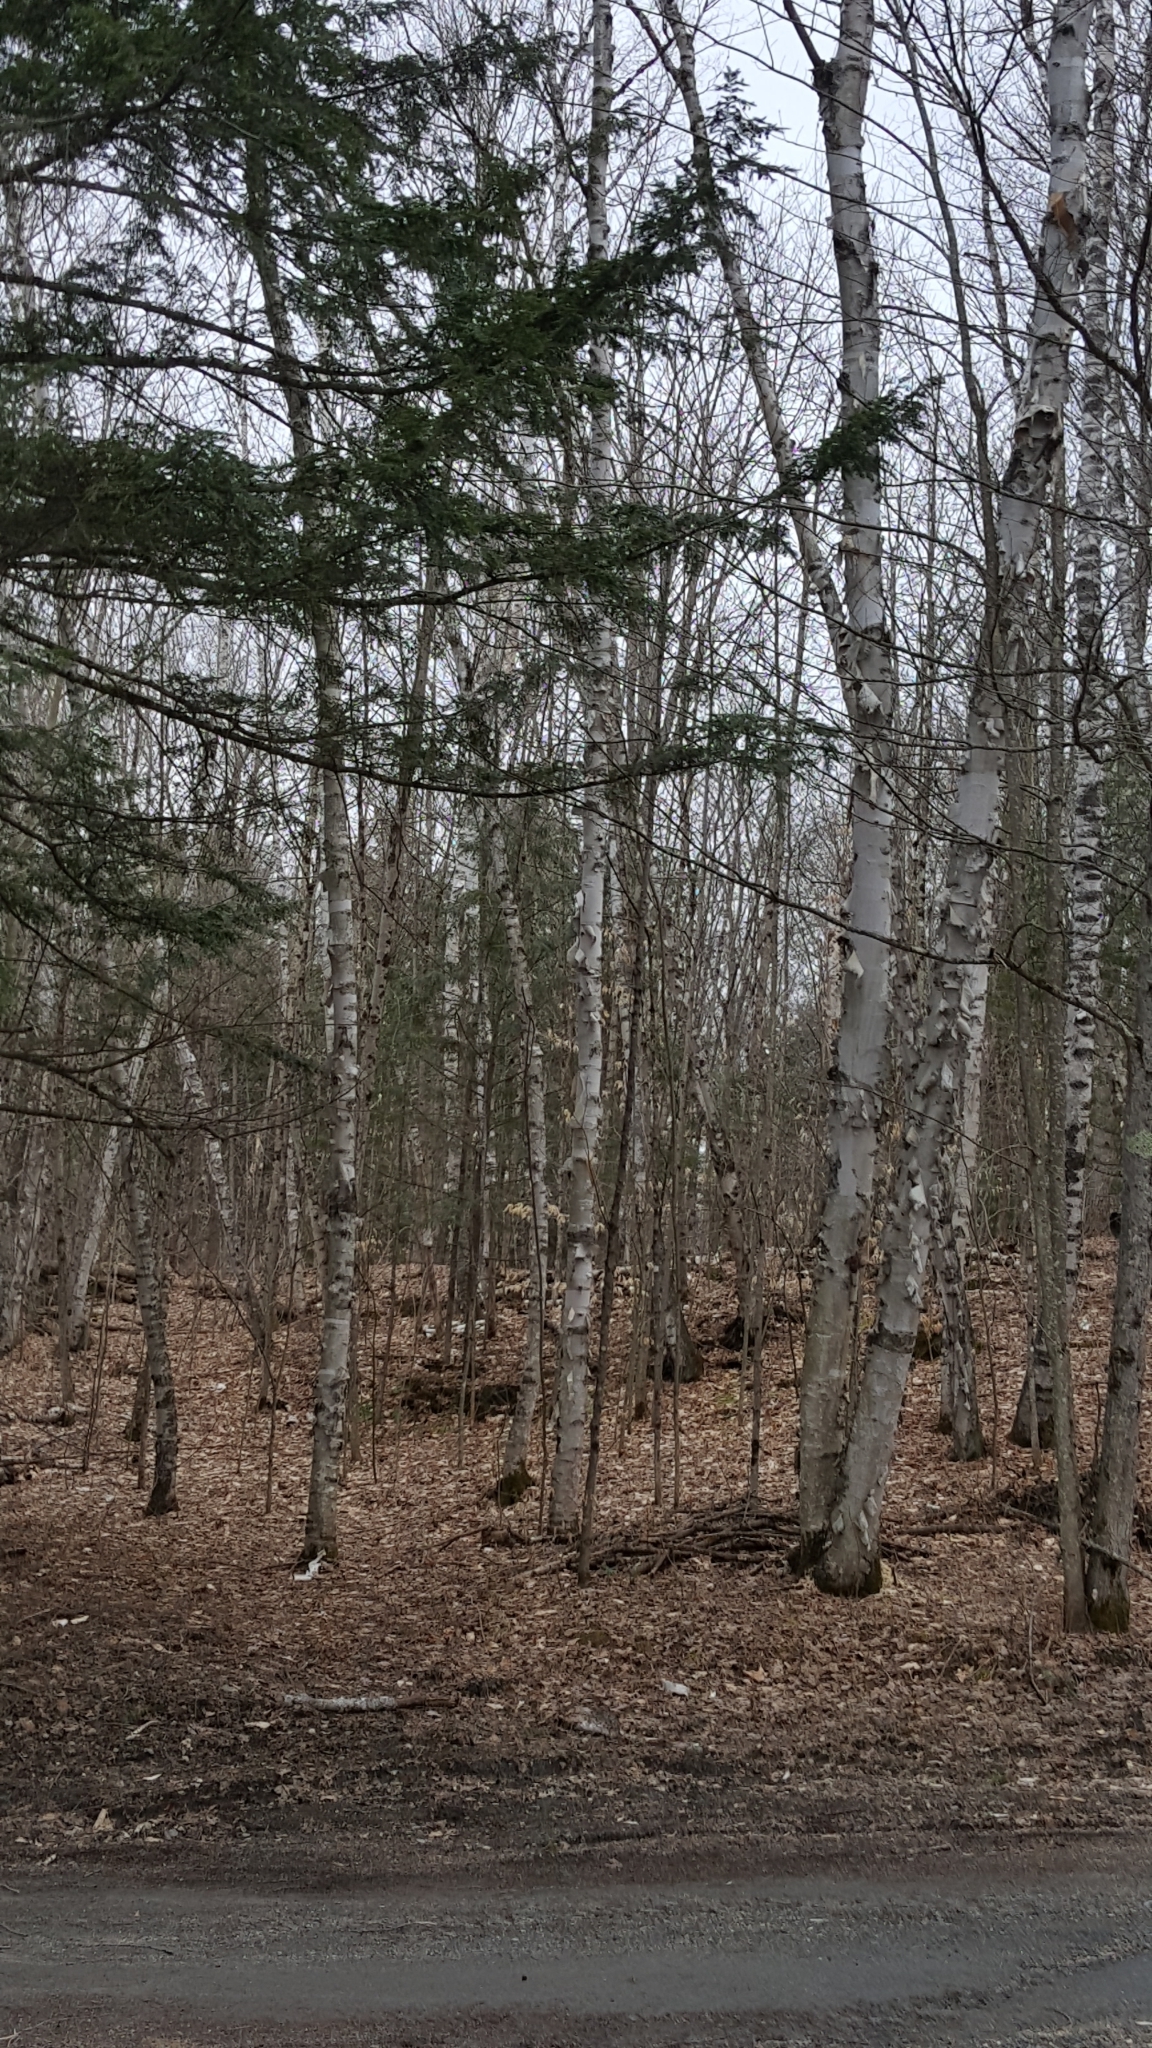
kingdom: Plantae
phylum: Tracheophyta
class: Magnoliopsida
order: Fagales
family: Betulaceae
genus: Betula
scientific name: Betula papyrifera
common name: Paper birch
